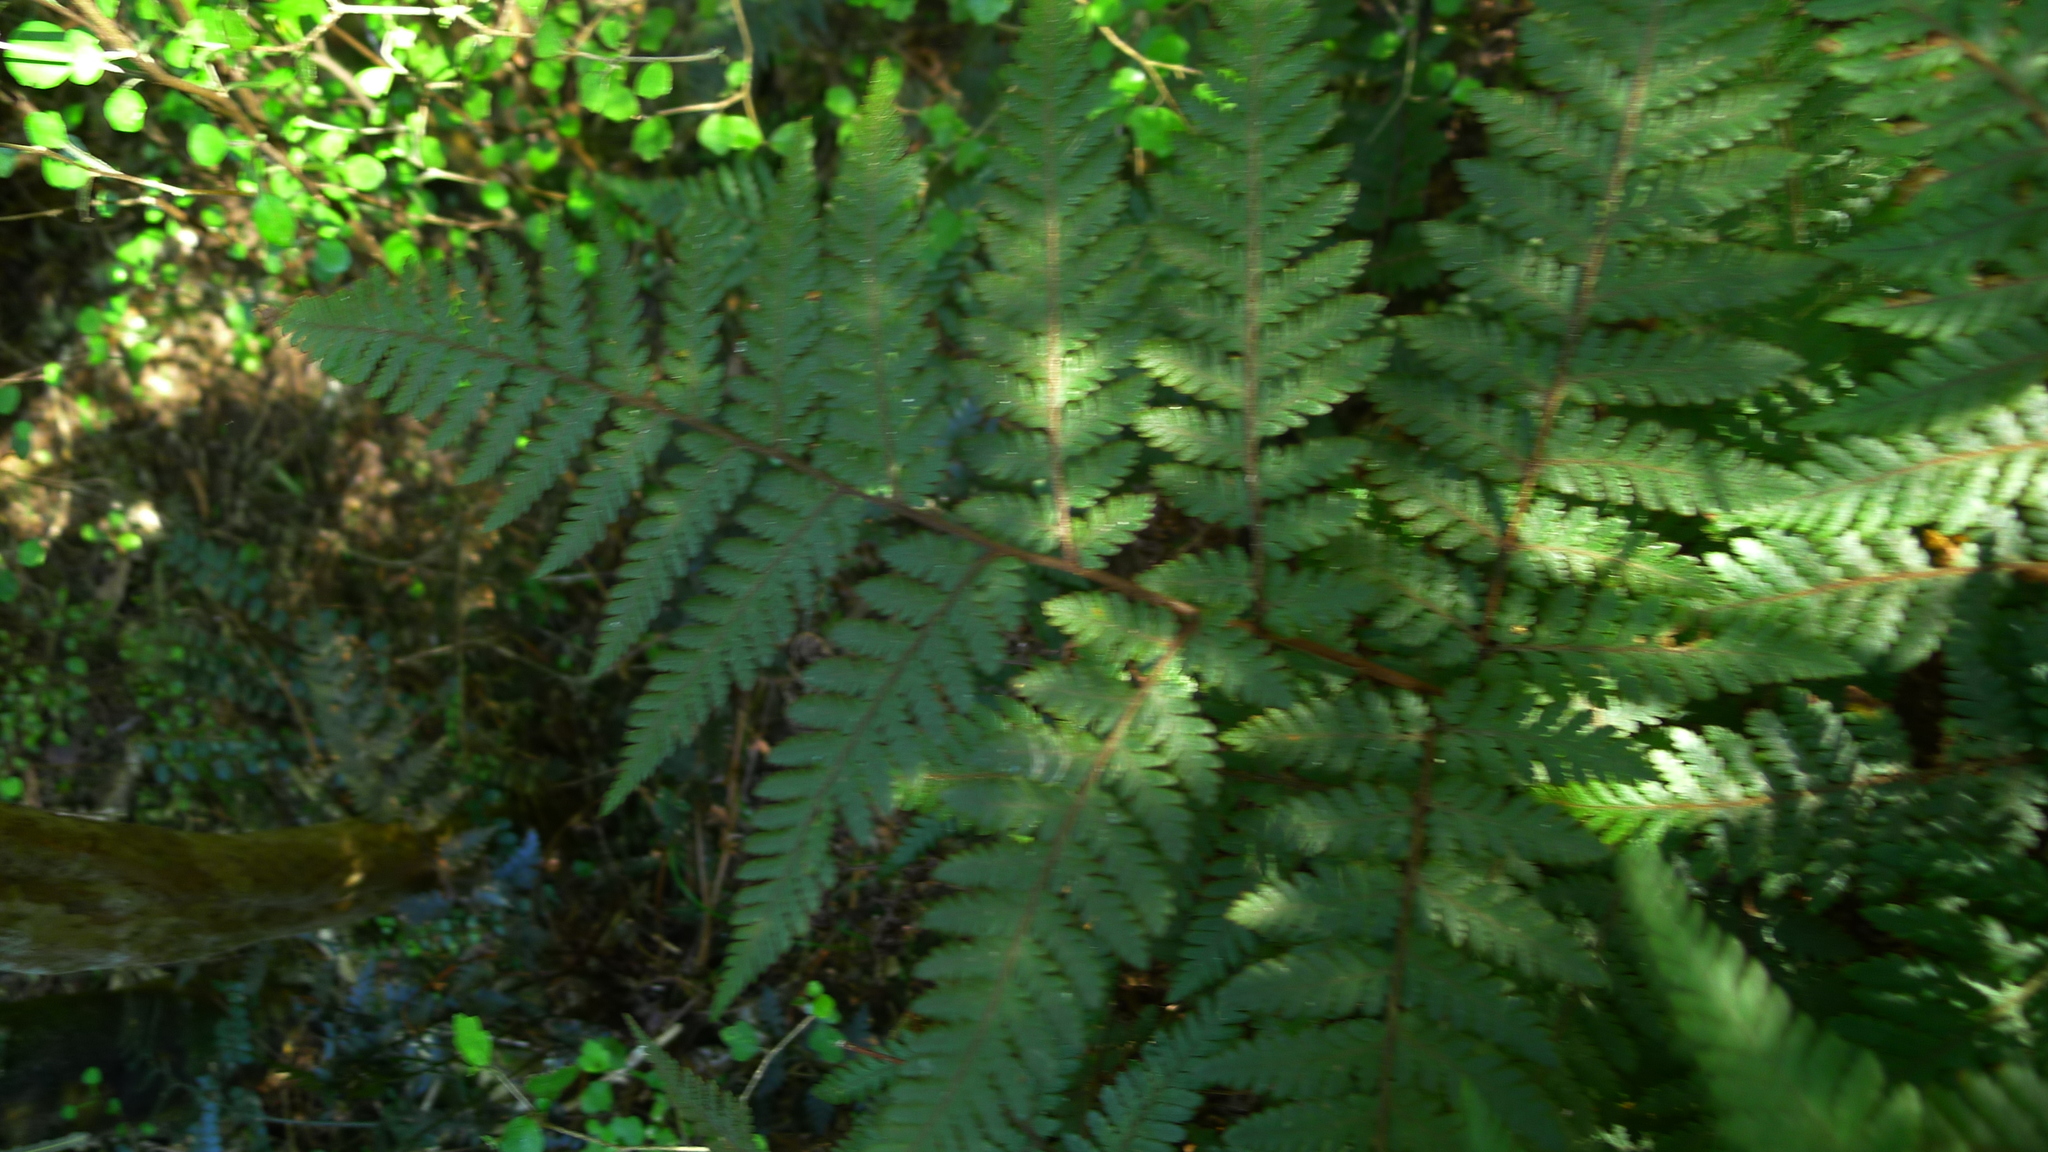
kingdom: Plantae
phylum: Tracheophyta
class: Polypodiopsida
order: Polypodiales
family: Dryopteridaceae
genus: Lastreopsis
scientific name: Lastreopsis velutina
